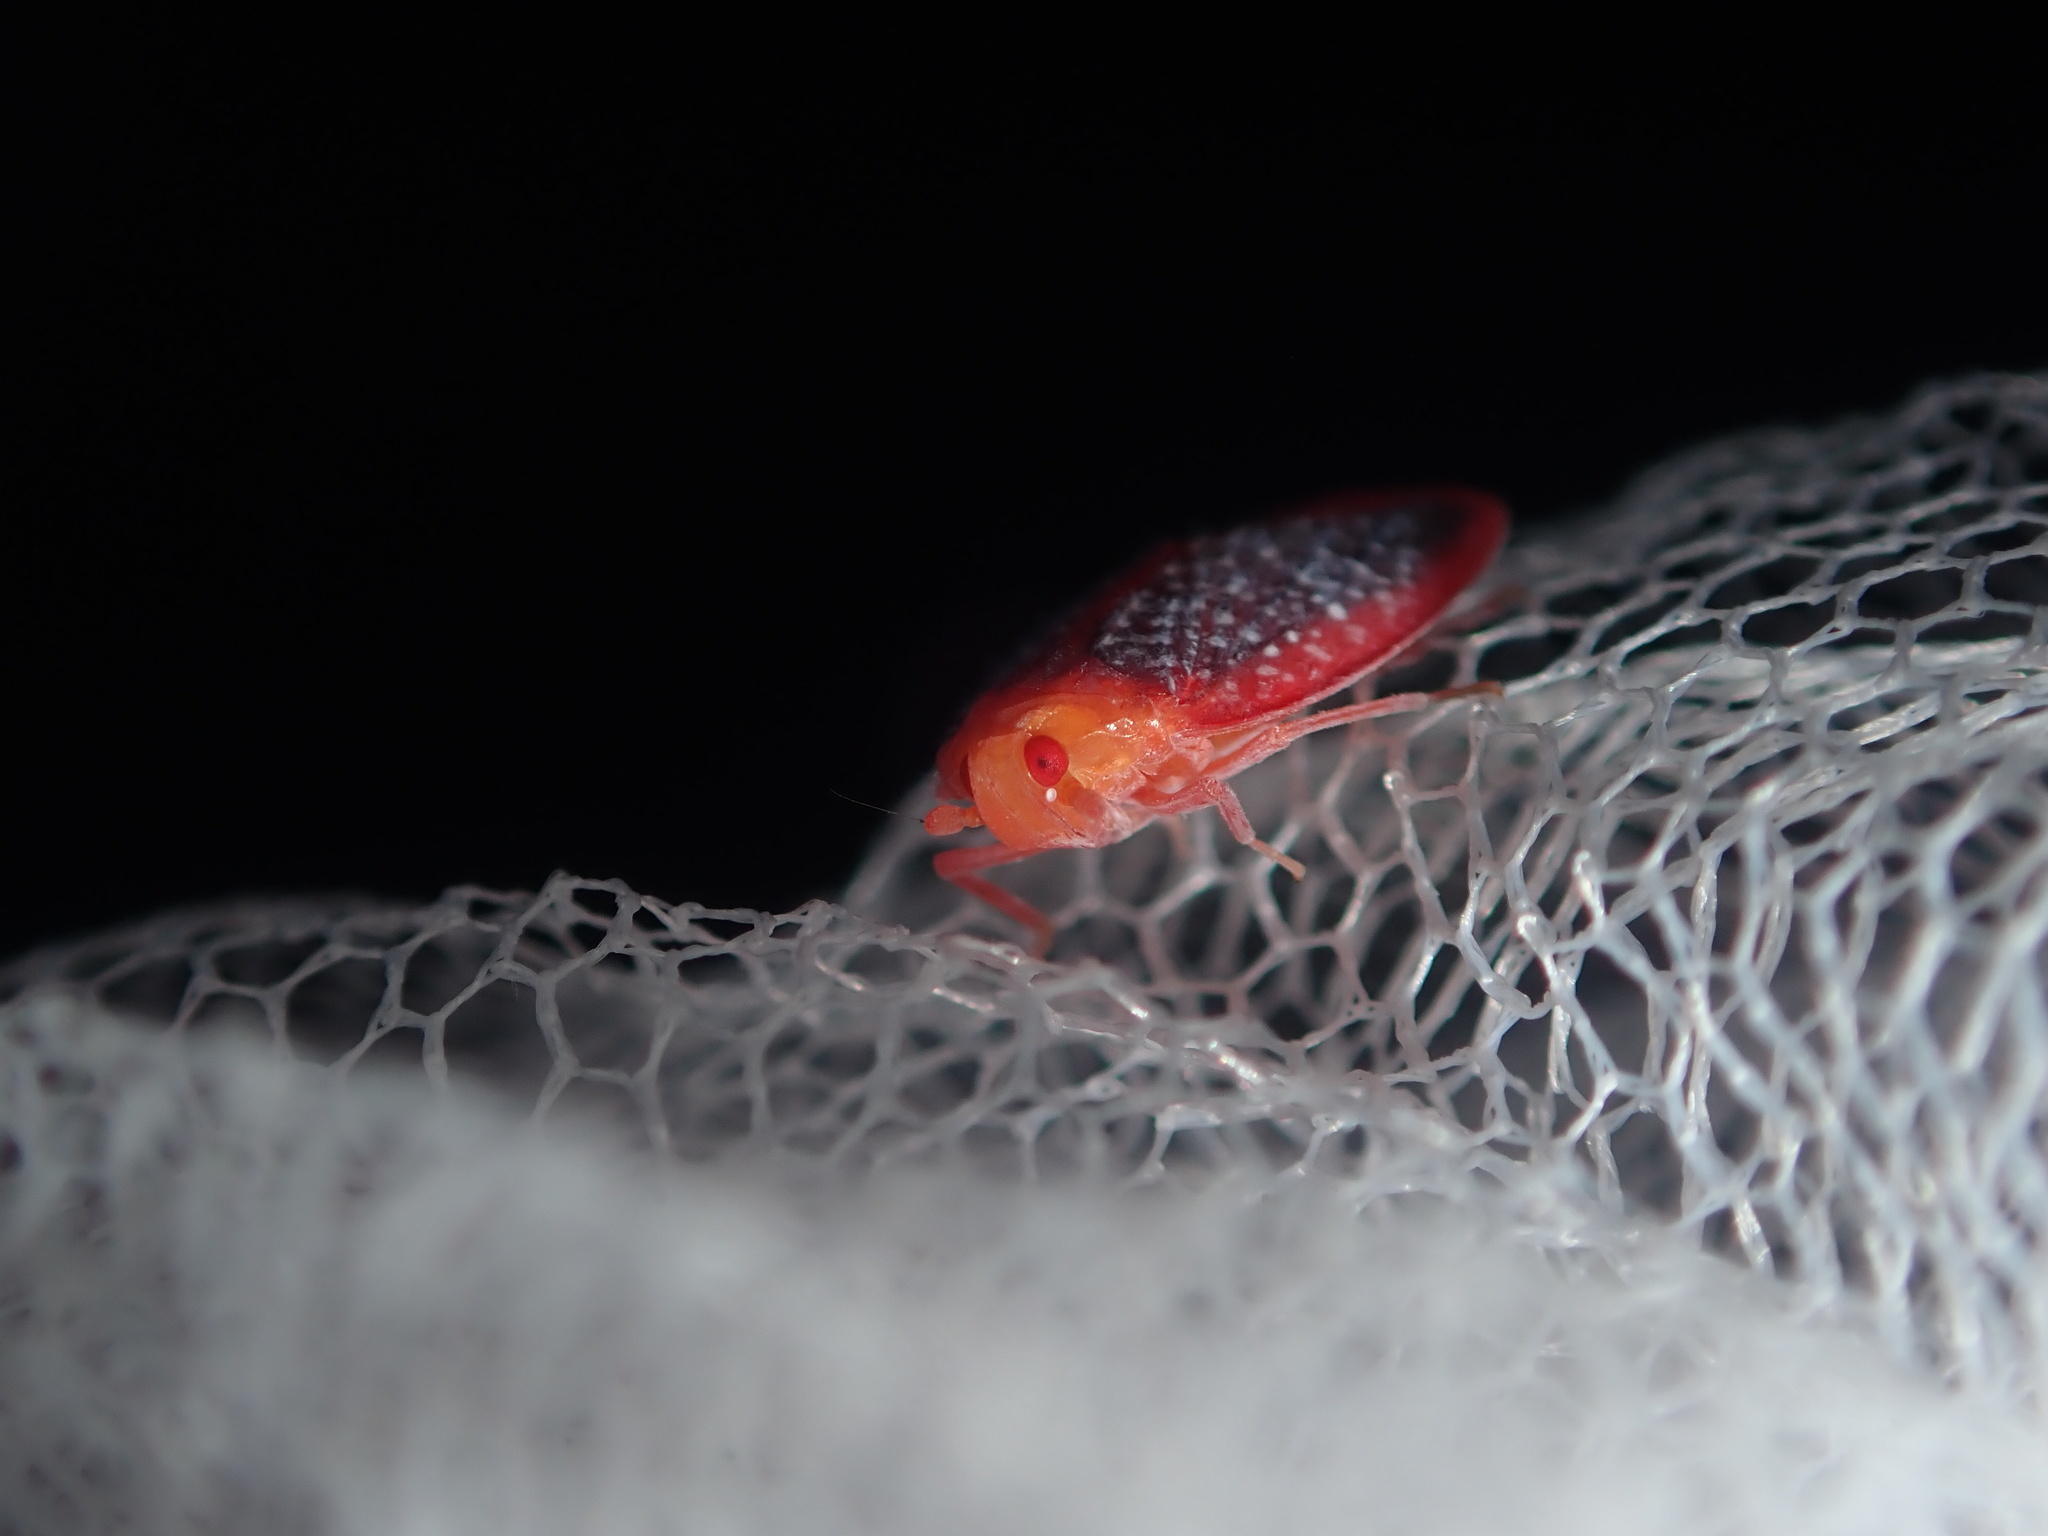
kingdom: Animalia
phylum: Arthropoda
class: Insecta
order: Hemiptera
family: Achilidae
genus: Achilus
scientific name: Achilus flammeus
